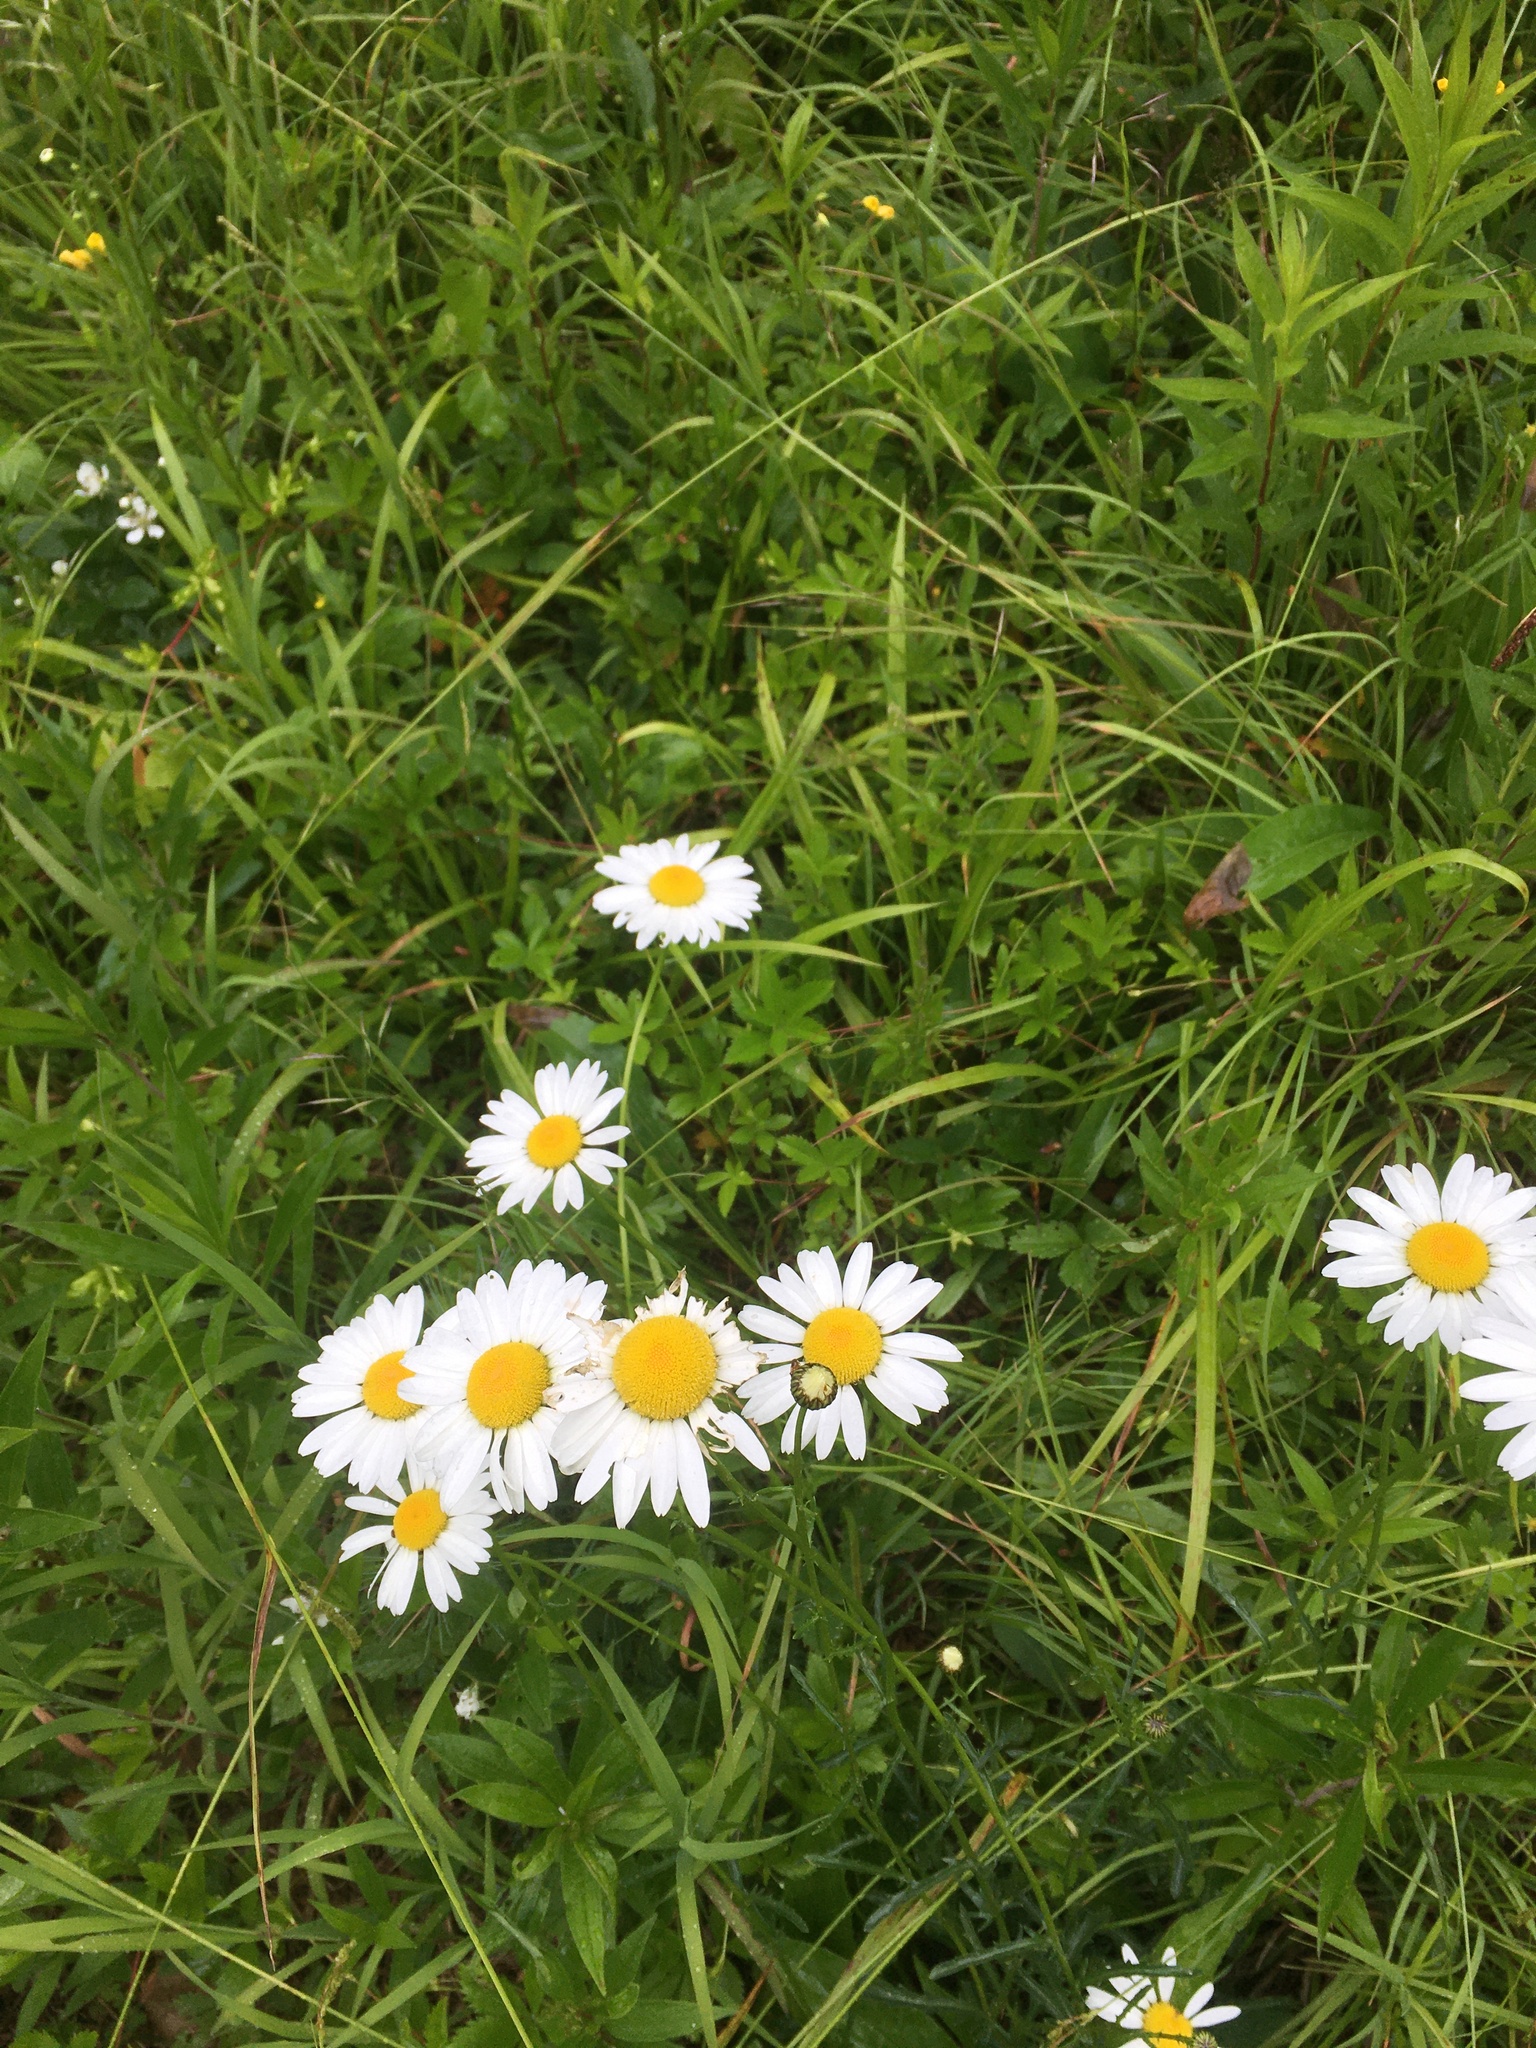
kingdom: Plantae
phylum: Tracheophyta
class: Magnoliopsida
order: Asterales
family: Asteraceae
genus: Leucanthemum
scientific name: Leucanthemum vulgare
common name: Oxeye daisy
